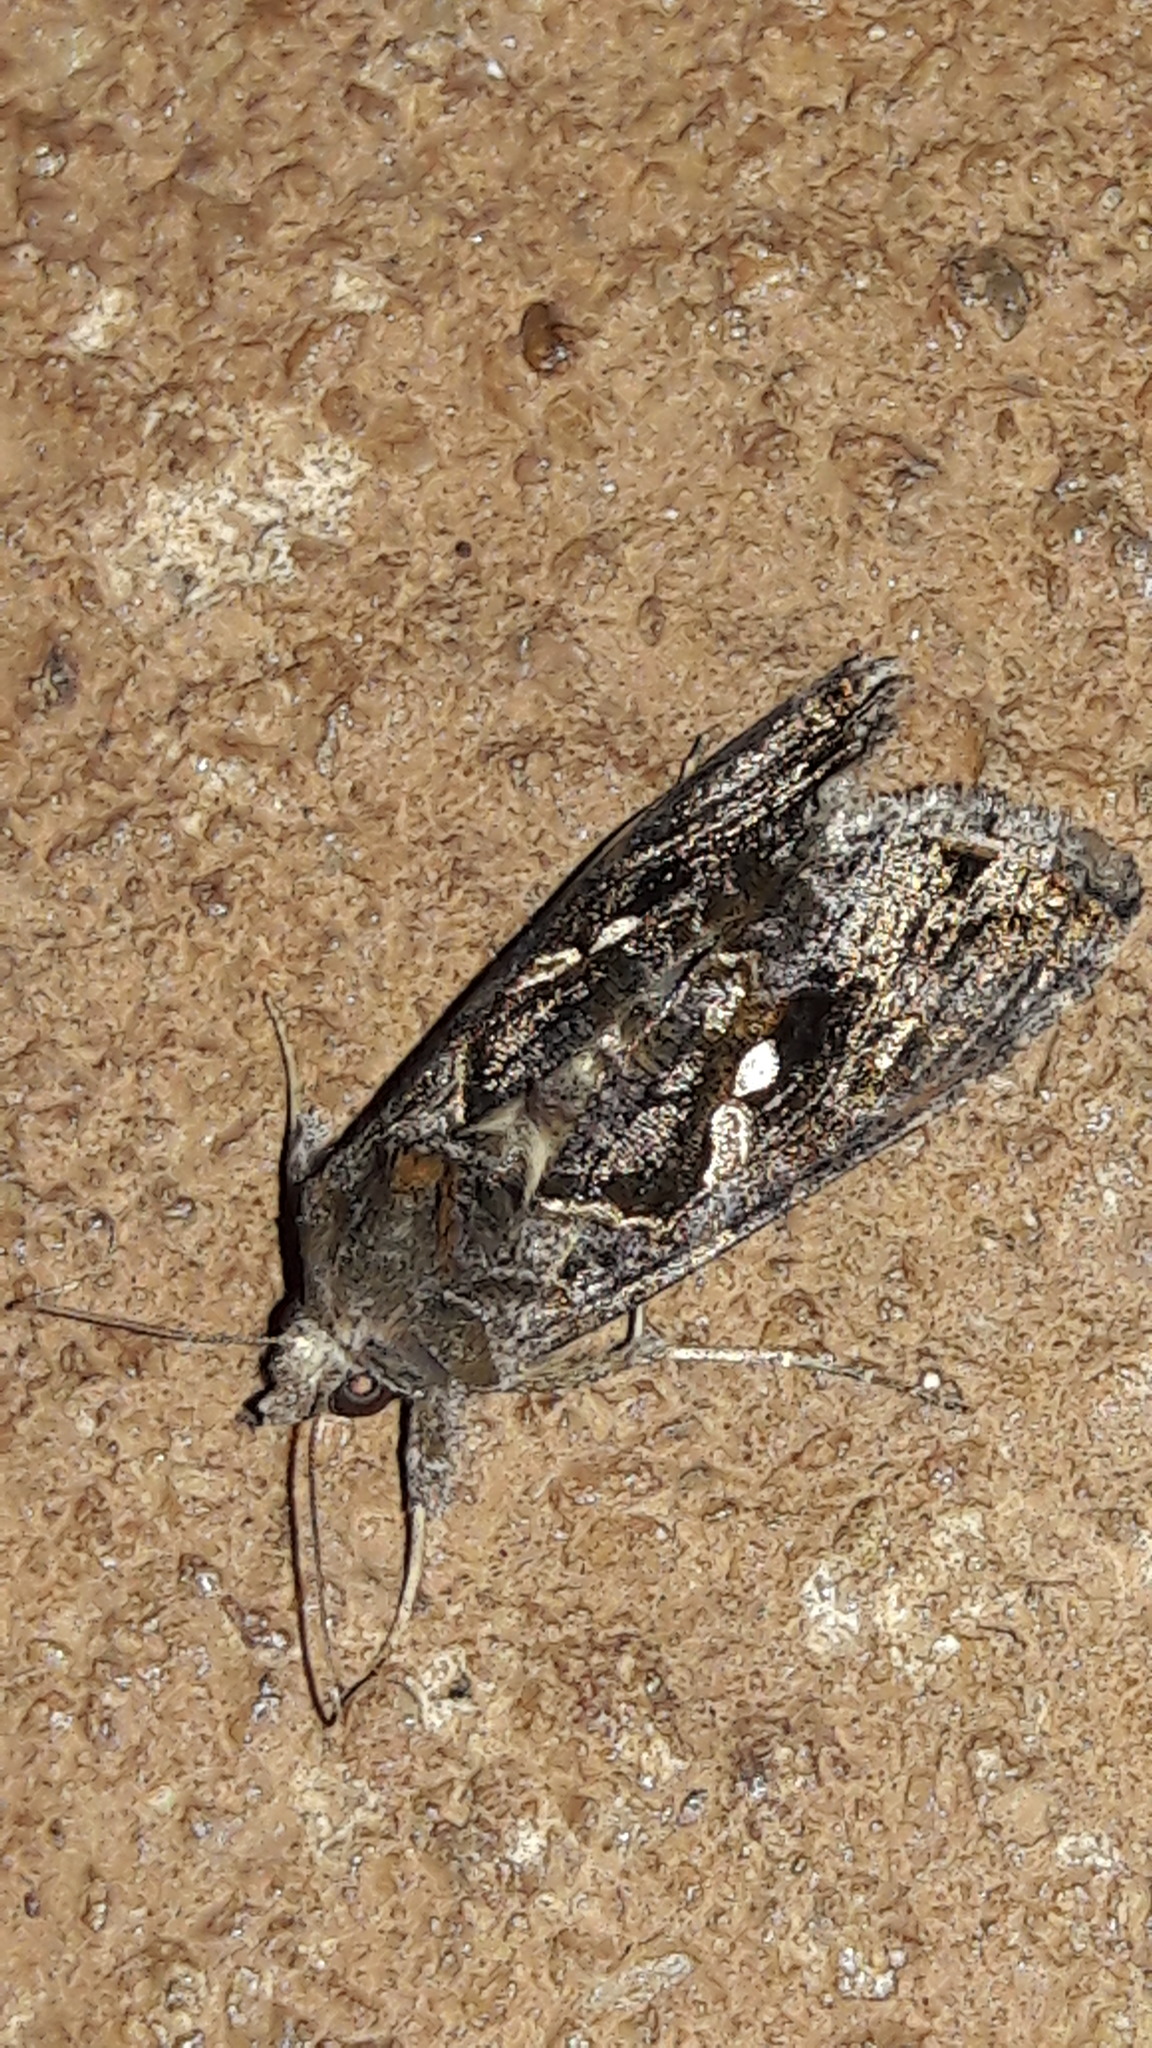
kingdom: Animalia
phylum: Arthropoda
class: Insecta
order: Lepidoptera
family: Noctuidae
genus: Chrysodeixis
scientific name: Chrysodeixis includens
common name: Cutworm moth
